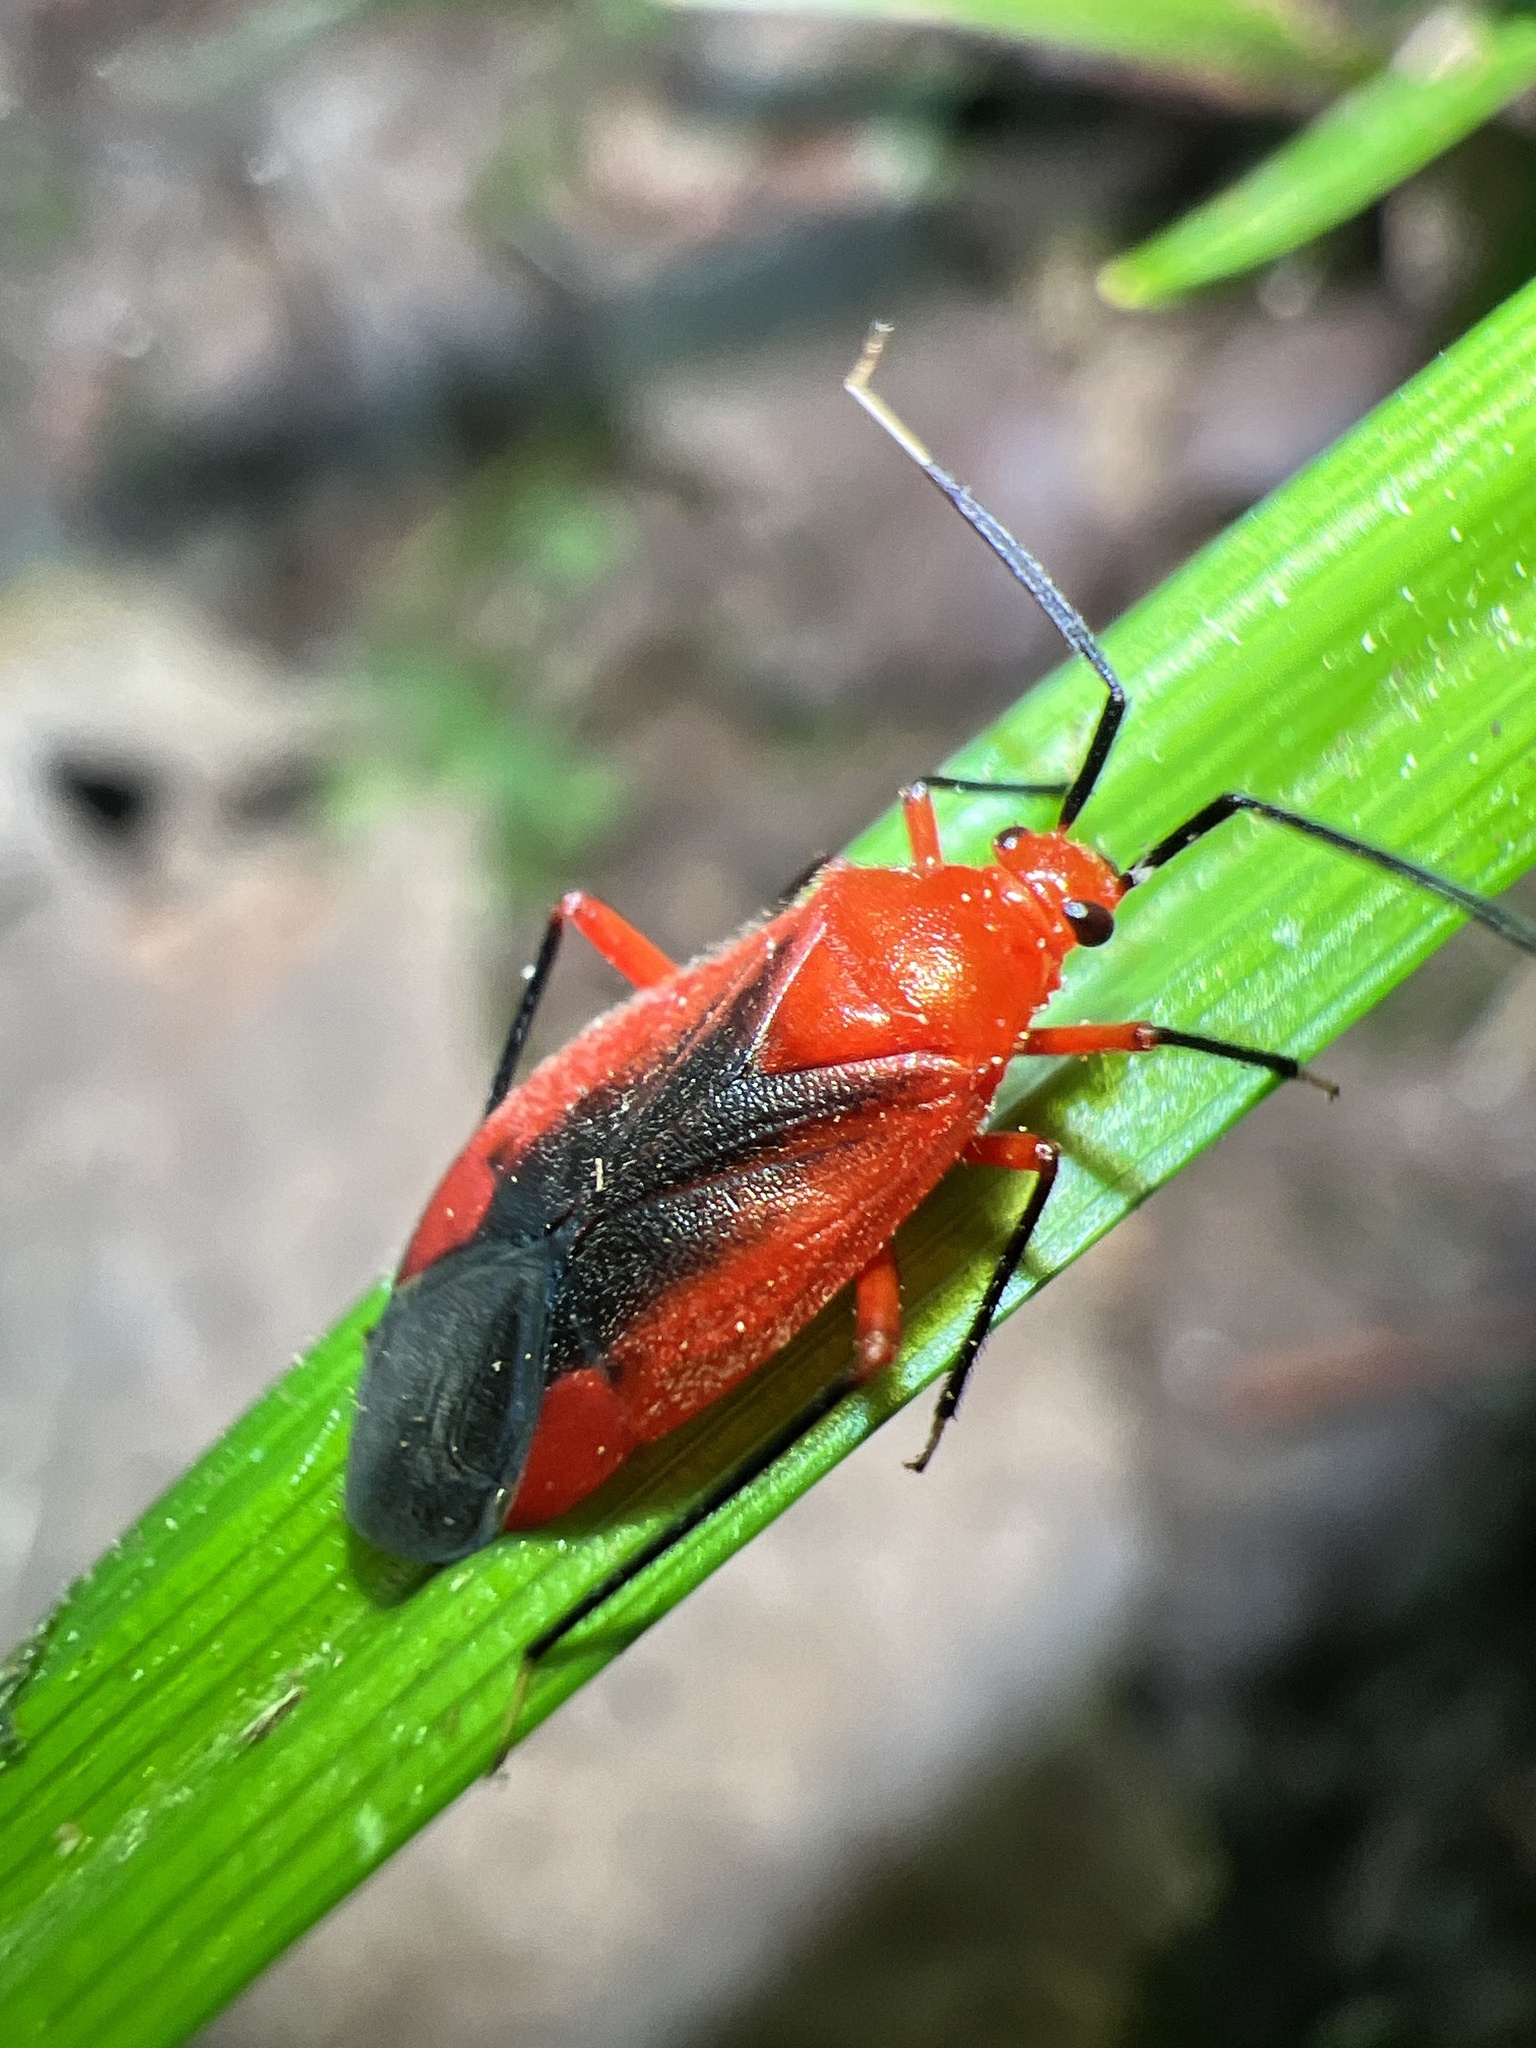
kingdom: Animalia
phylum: Arthropoda
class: Insecta
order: Hemiptera
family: Miridae
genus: Coccobaphes
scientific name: Coccobaphes frontifer
